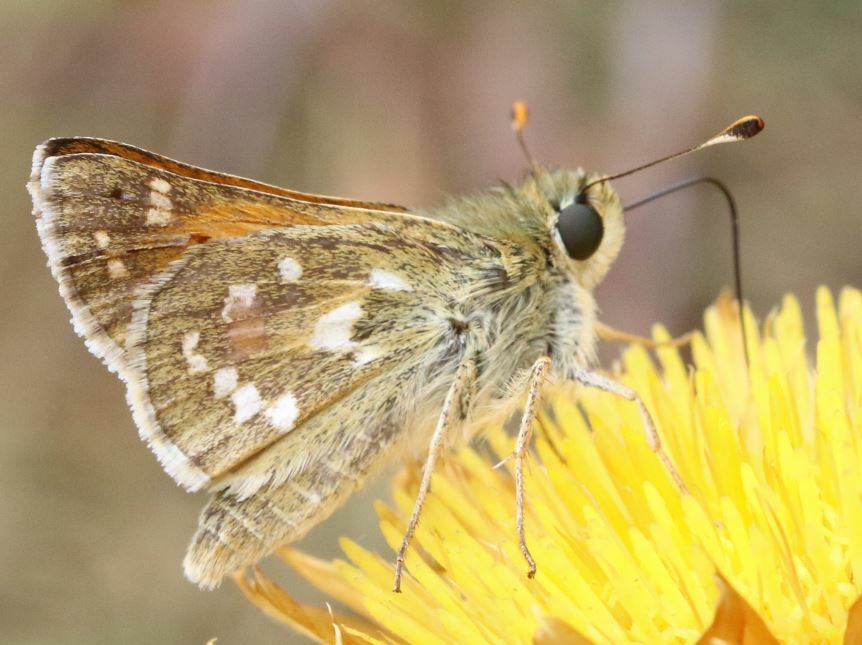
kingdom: Animalia
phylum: Arthropoda
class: Insecta
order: Lepidoptera
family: Hesperiidae
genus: Hesperia
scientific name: Hesperia comma
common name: Common branded skipper
